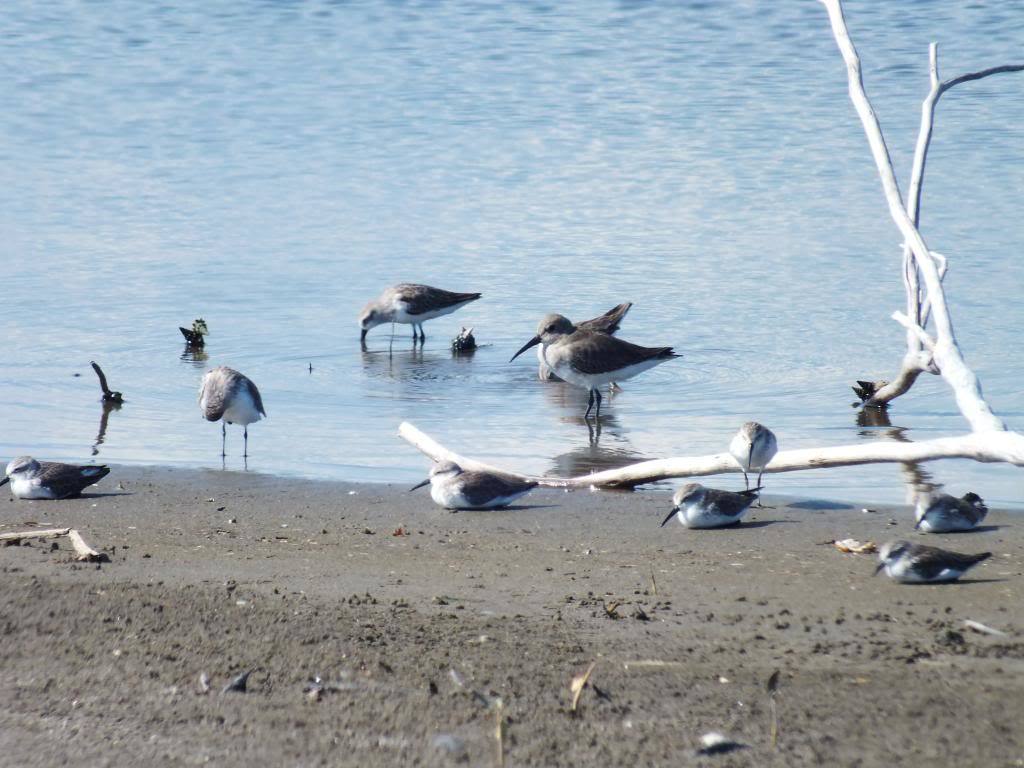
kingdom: Animalia
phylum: Chordata
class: Aves
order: Charadriiformes
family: Scolopacidae
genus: Calidris
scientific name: Calidris alpina
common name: Dunlin
